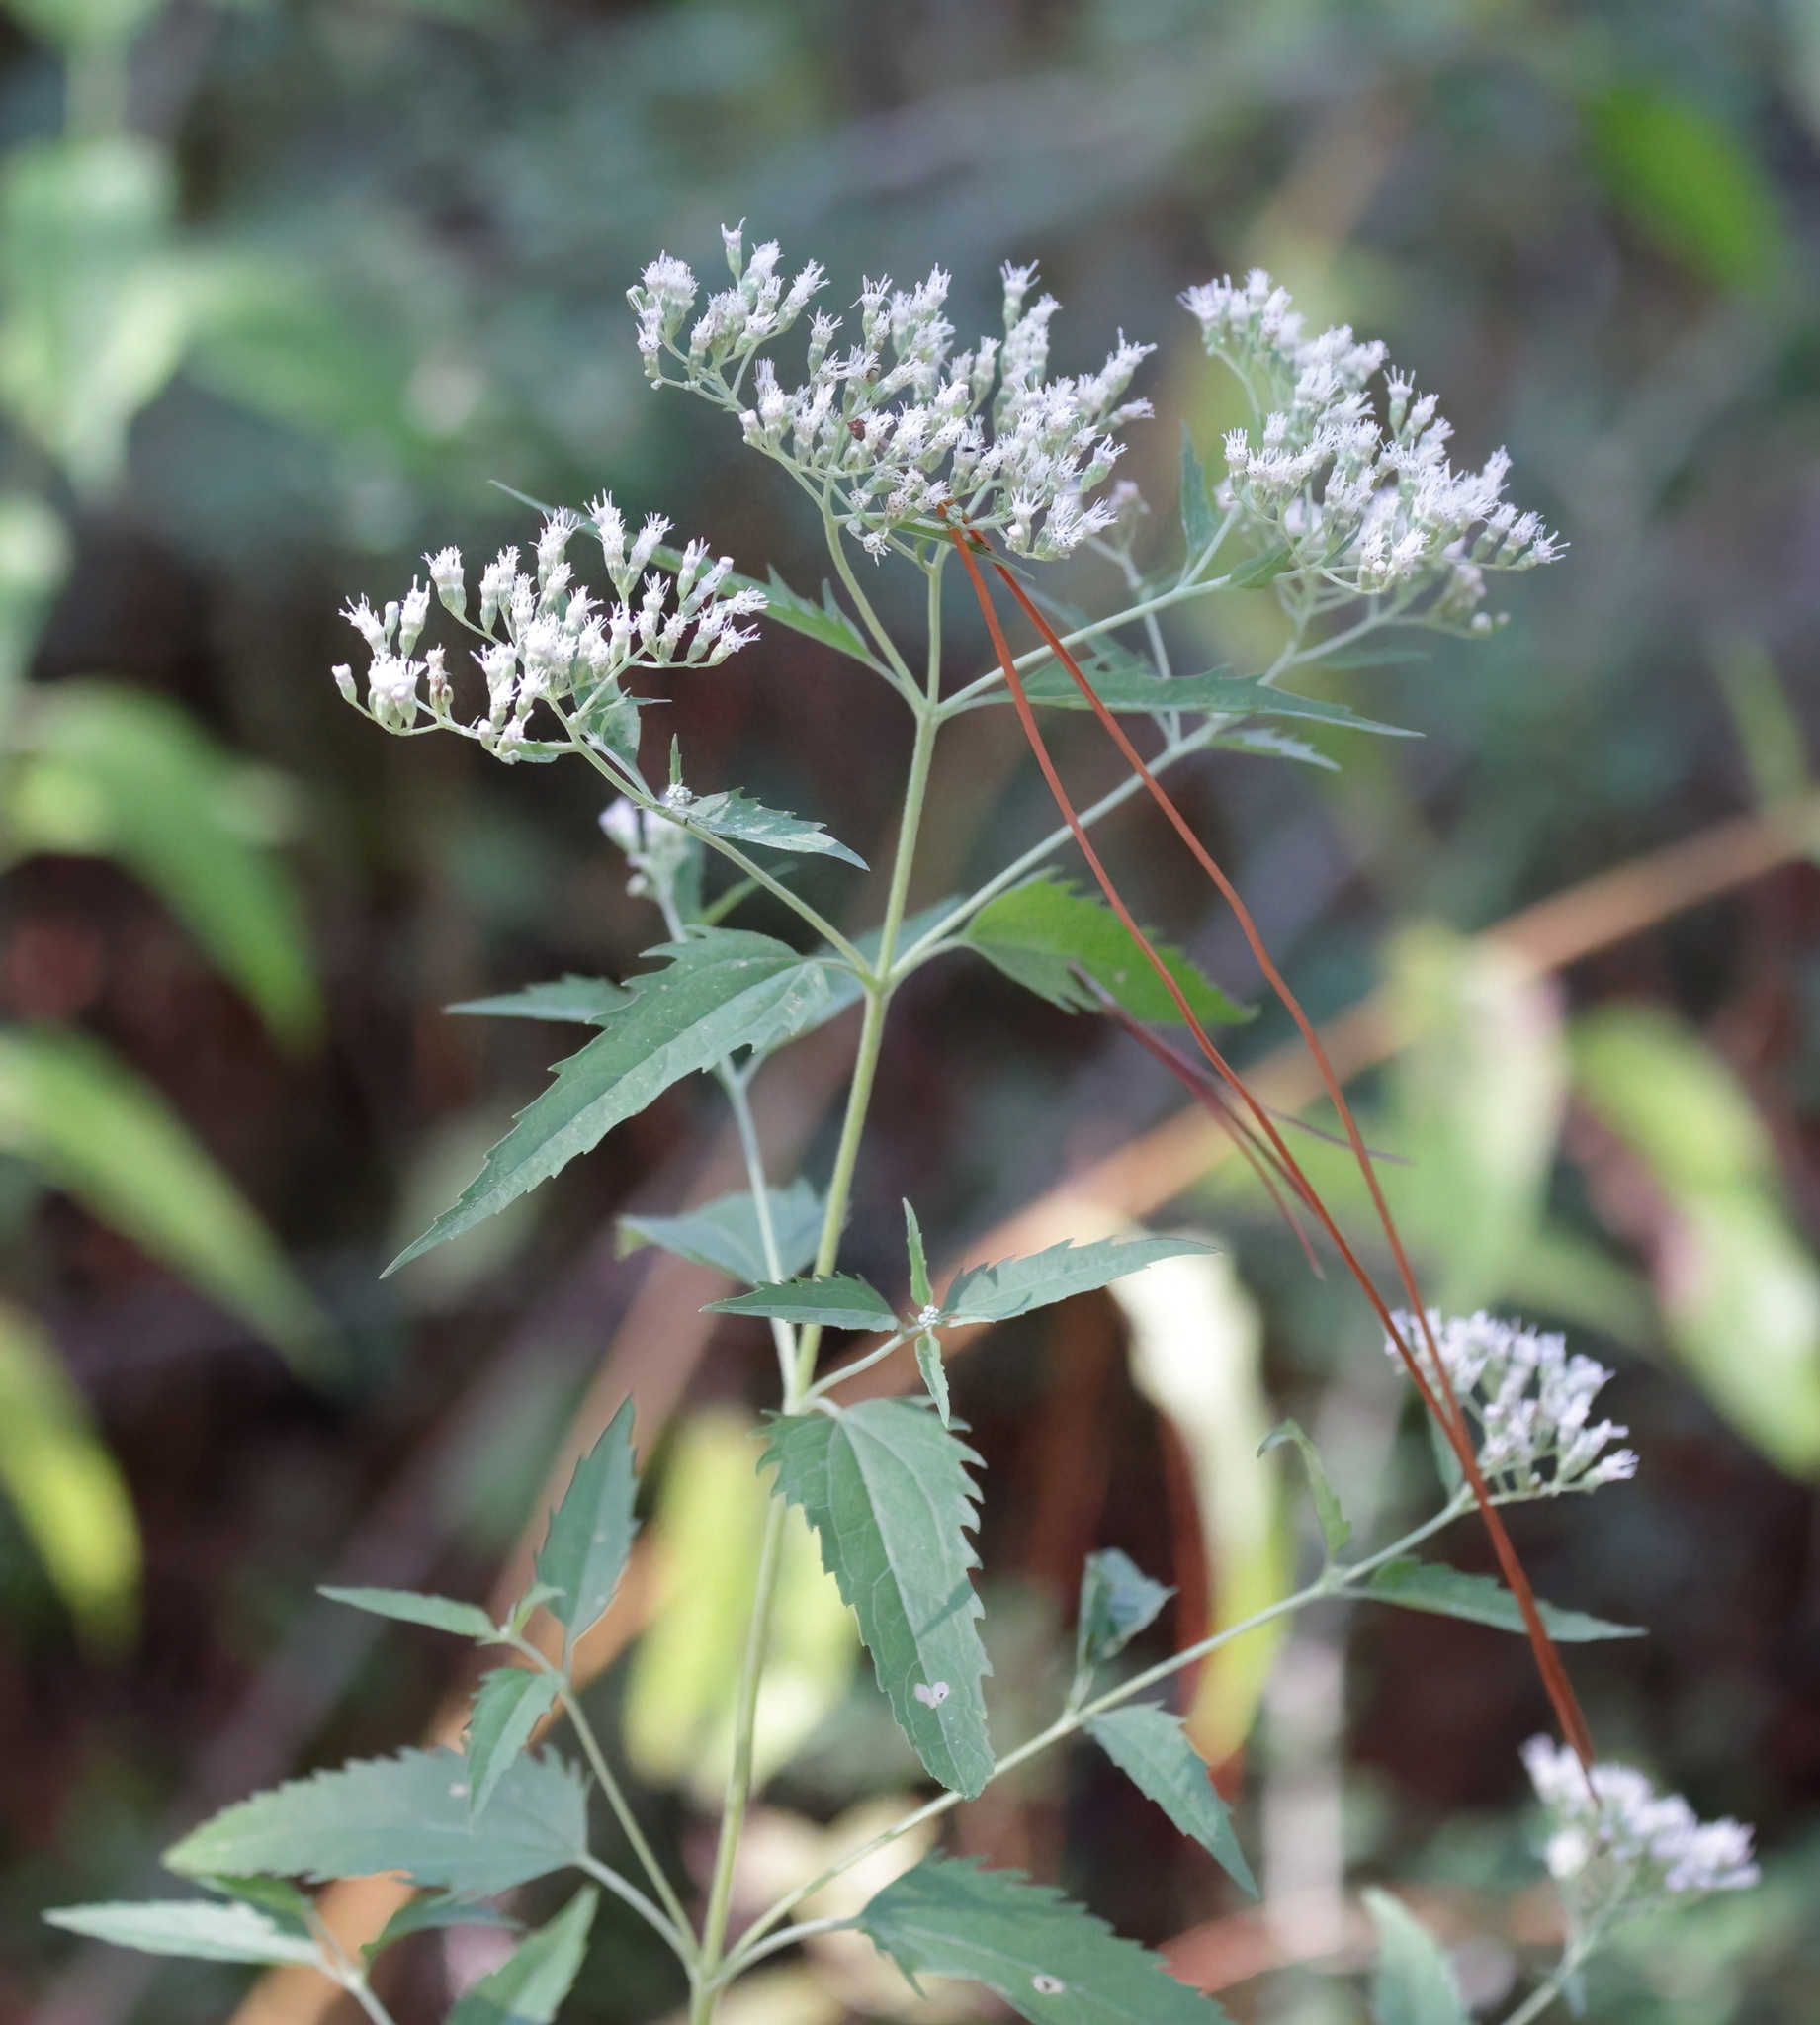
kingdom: Plantae
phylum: Tracheophyta
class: Magnoliopsida
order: Asterales
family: Asteraceae
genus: Eupatorium
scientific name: Eupatorium serotinum
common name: Late boneset
